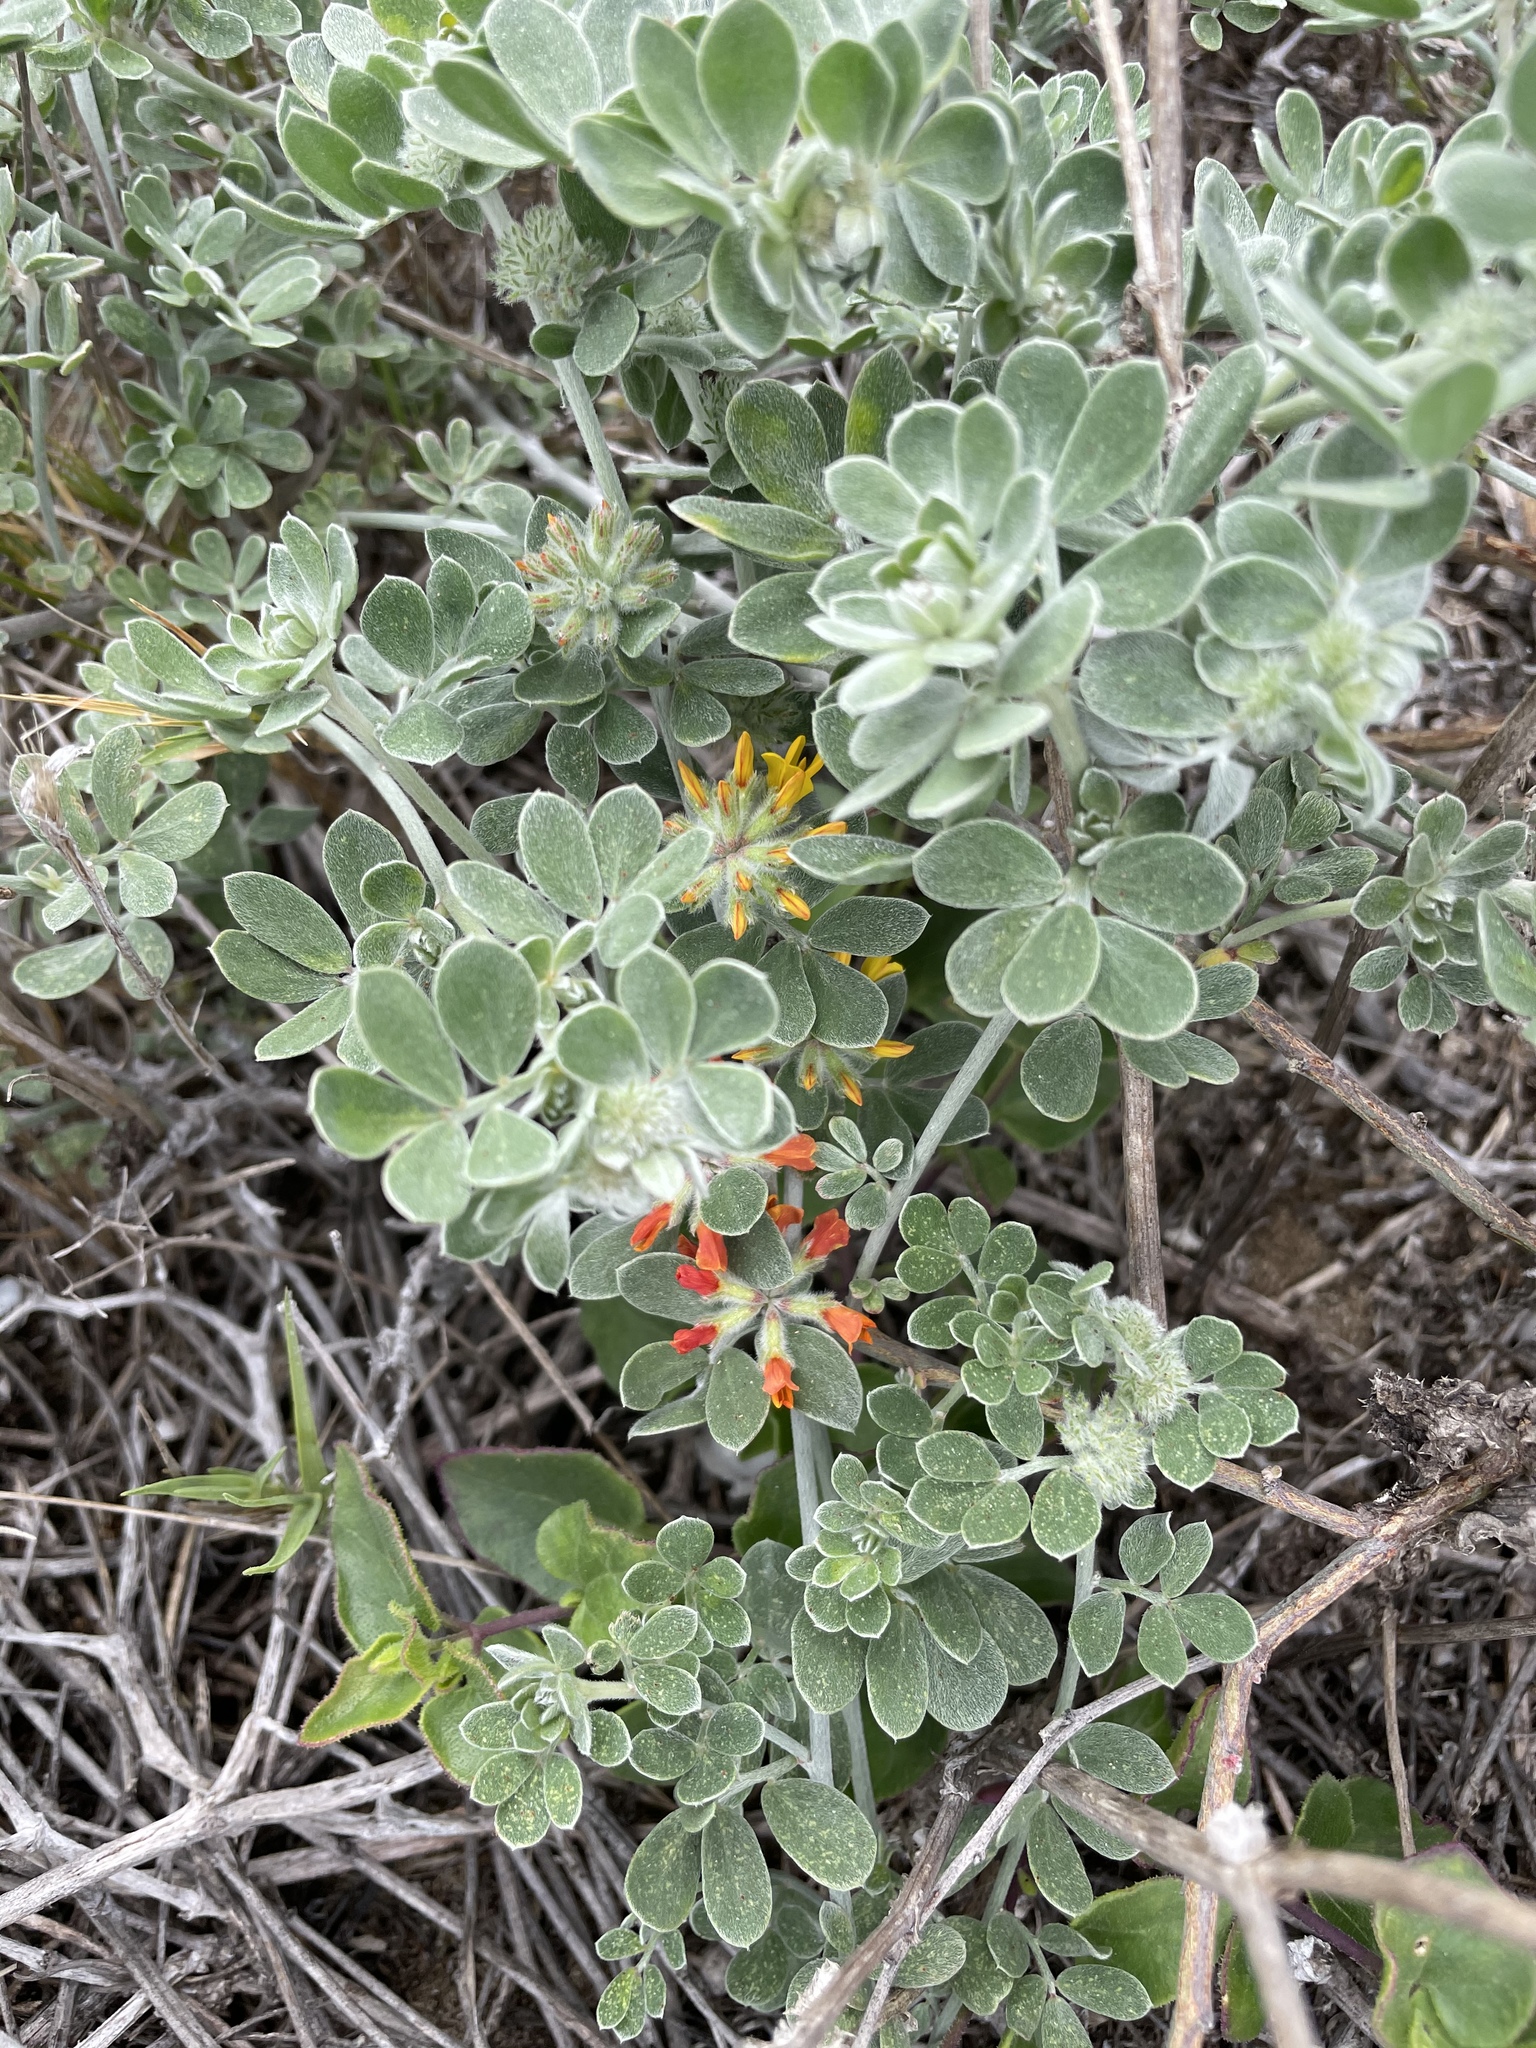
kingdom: Plantae
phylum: Tracheophyta
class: Magnoliopsida
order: Fabales
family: Fabaceae
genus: Acmispon
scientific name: Acmispon argophyllus
